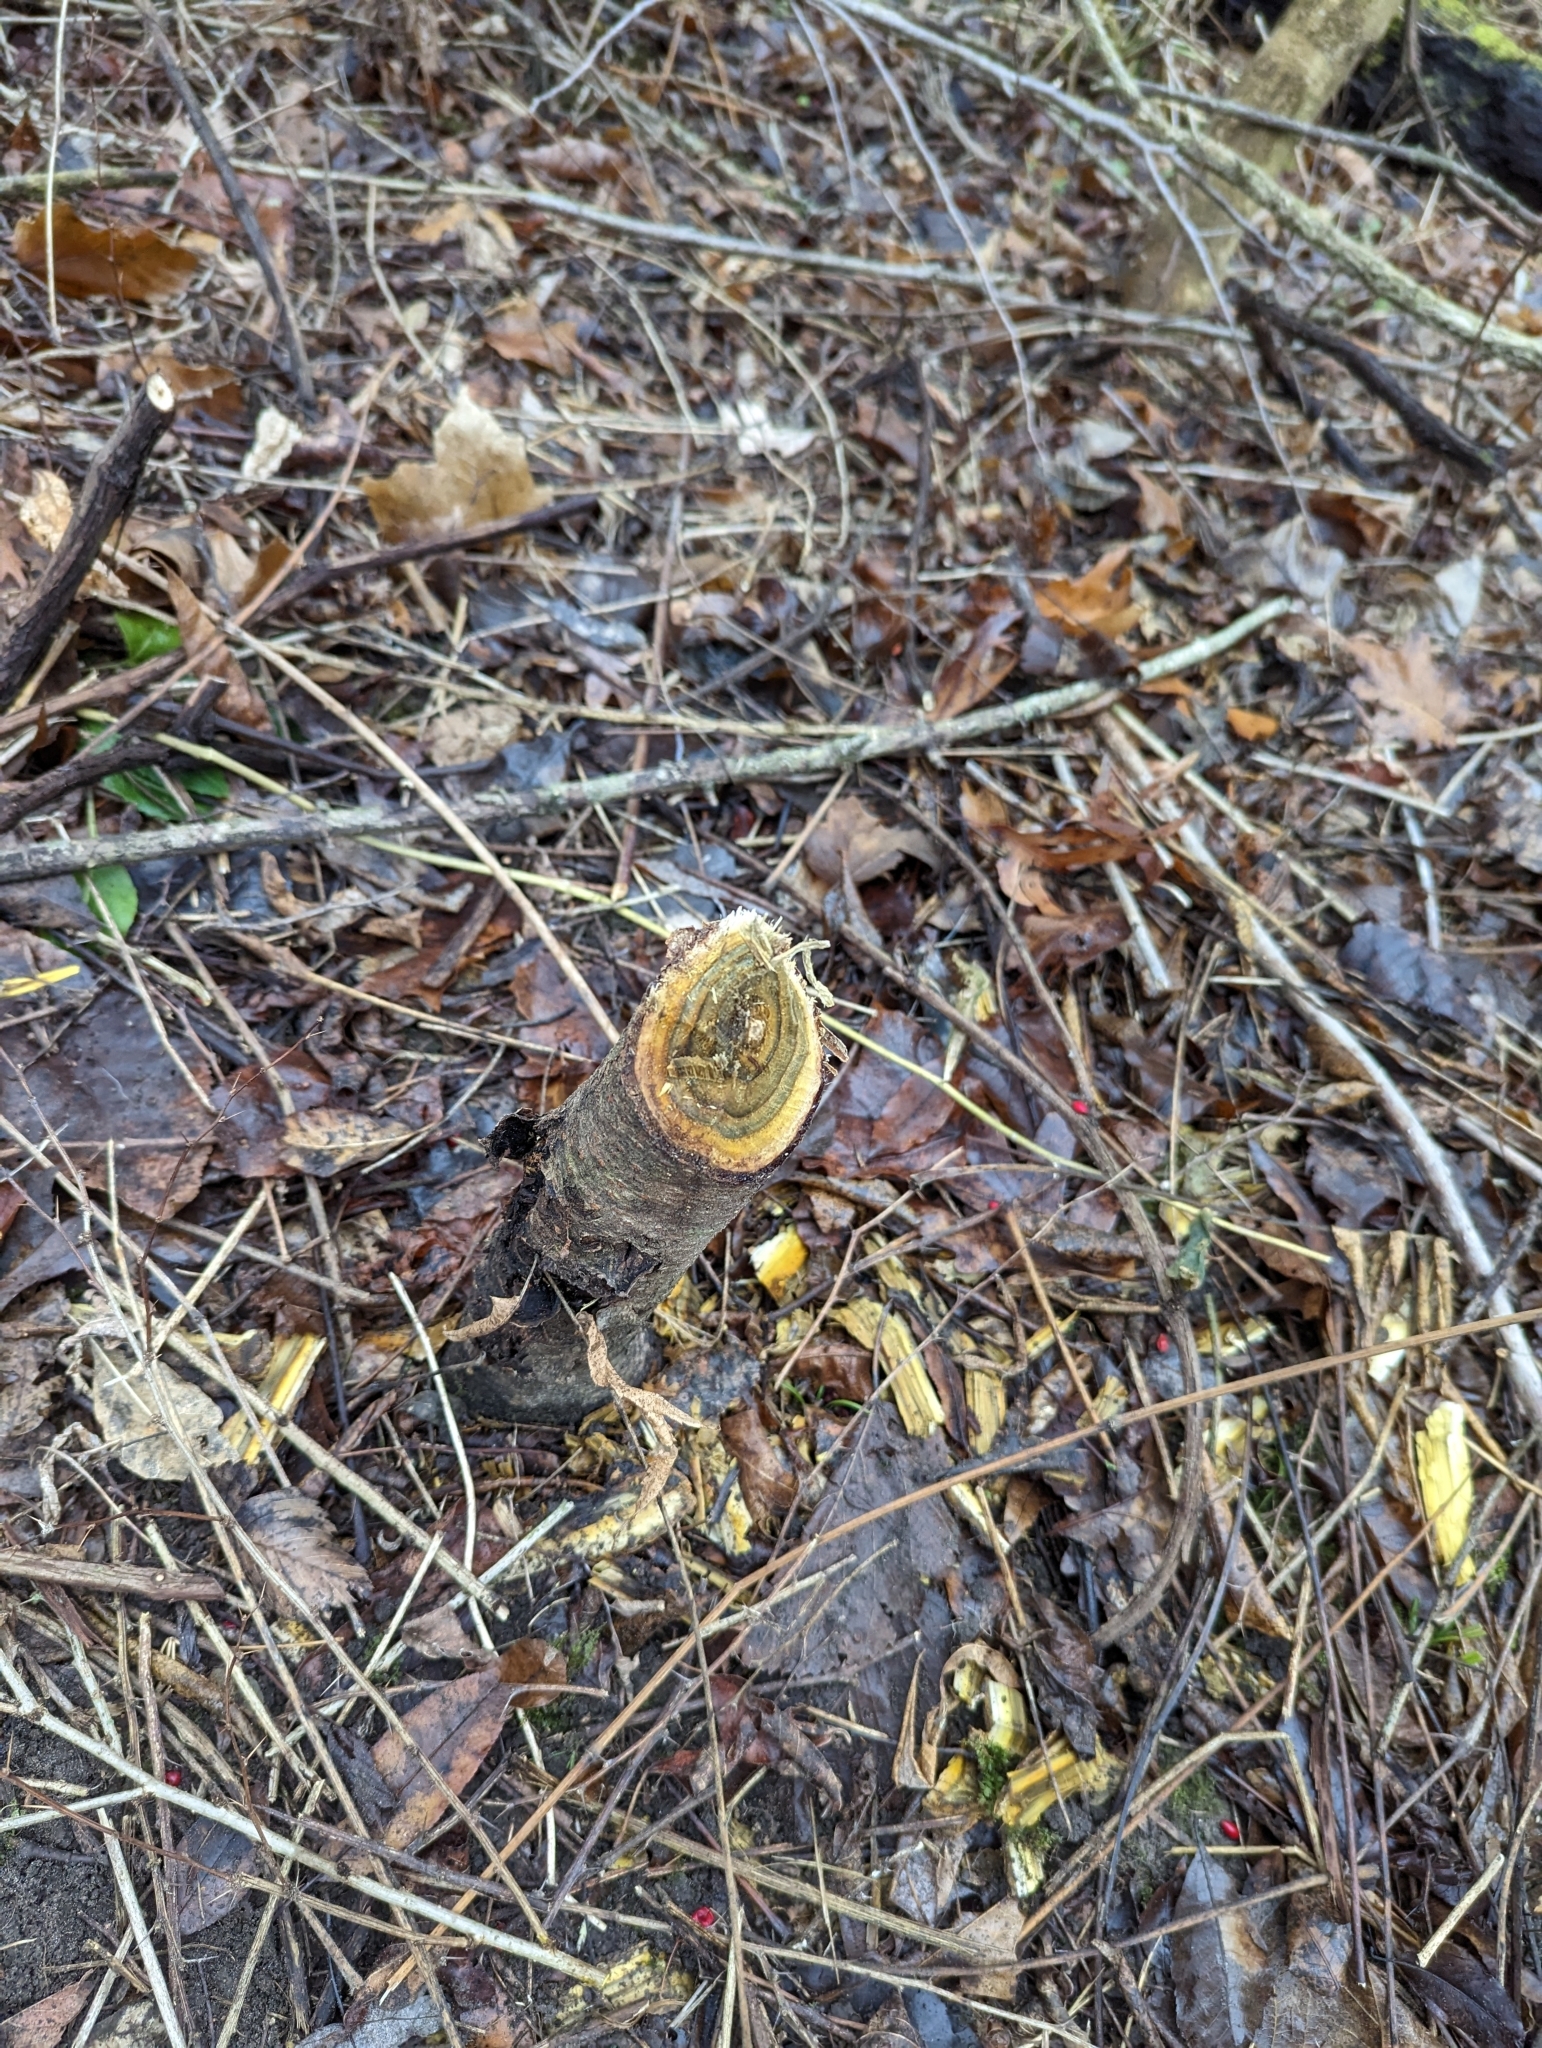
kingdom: Animalia
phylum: Chordata
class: Mammalia
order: Rodentia
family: Castoridae
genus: Castor
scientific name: Castor canadensis
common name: American beaver
